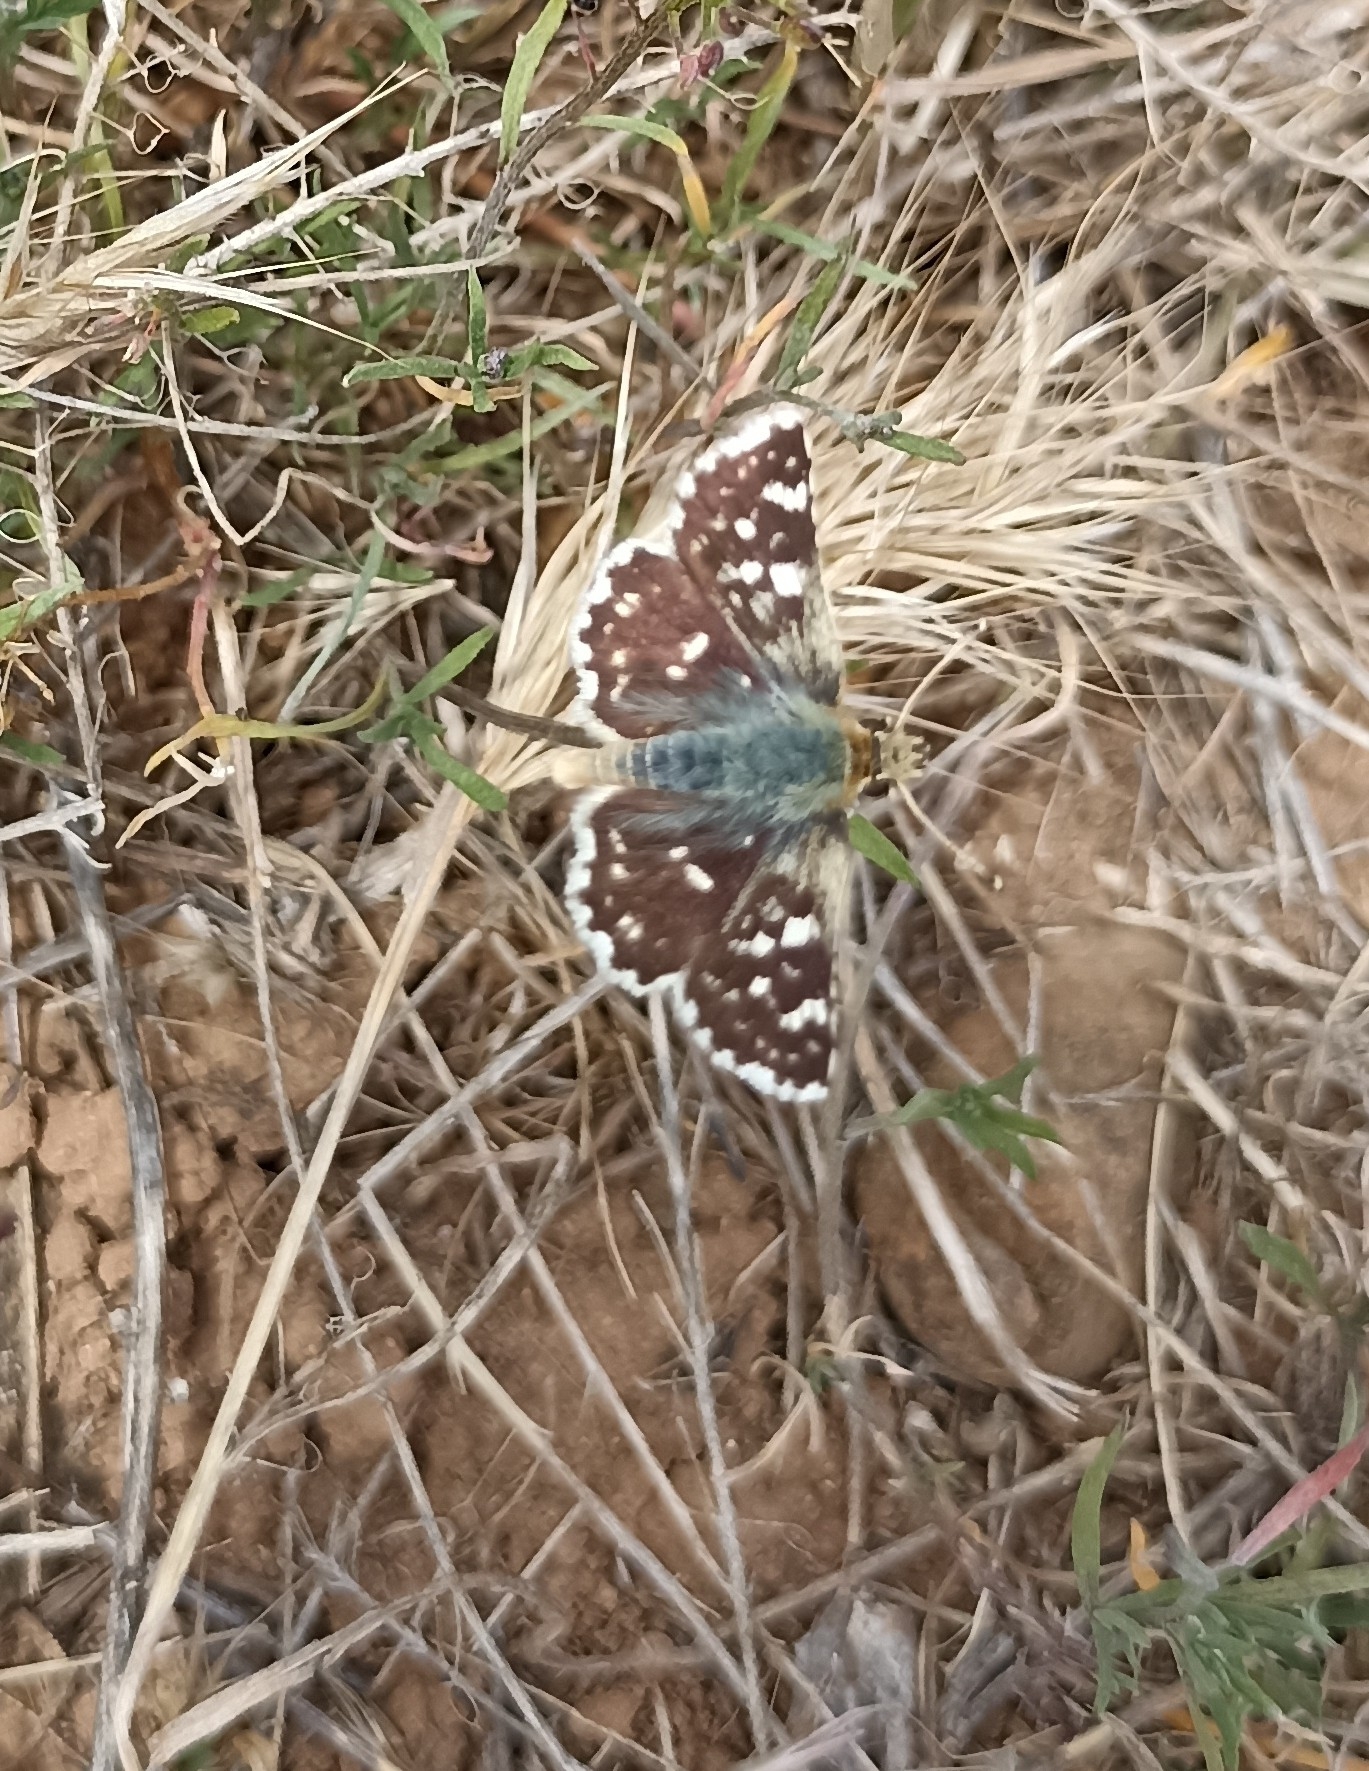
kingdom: Animalia
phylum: Arthropoda
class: Insecta
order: Lepidoptera
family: Hesperiidae
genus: Spialia
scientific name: Spialia sertorius
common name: Red underwing skipper
